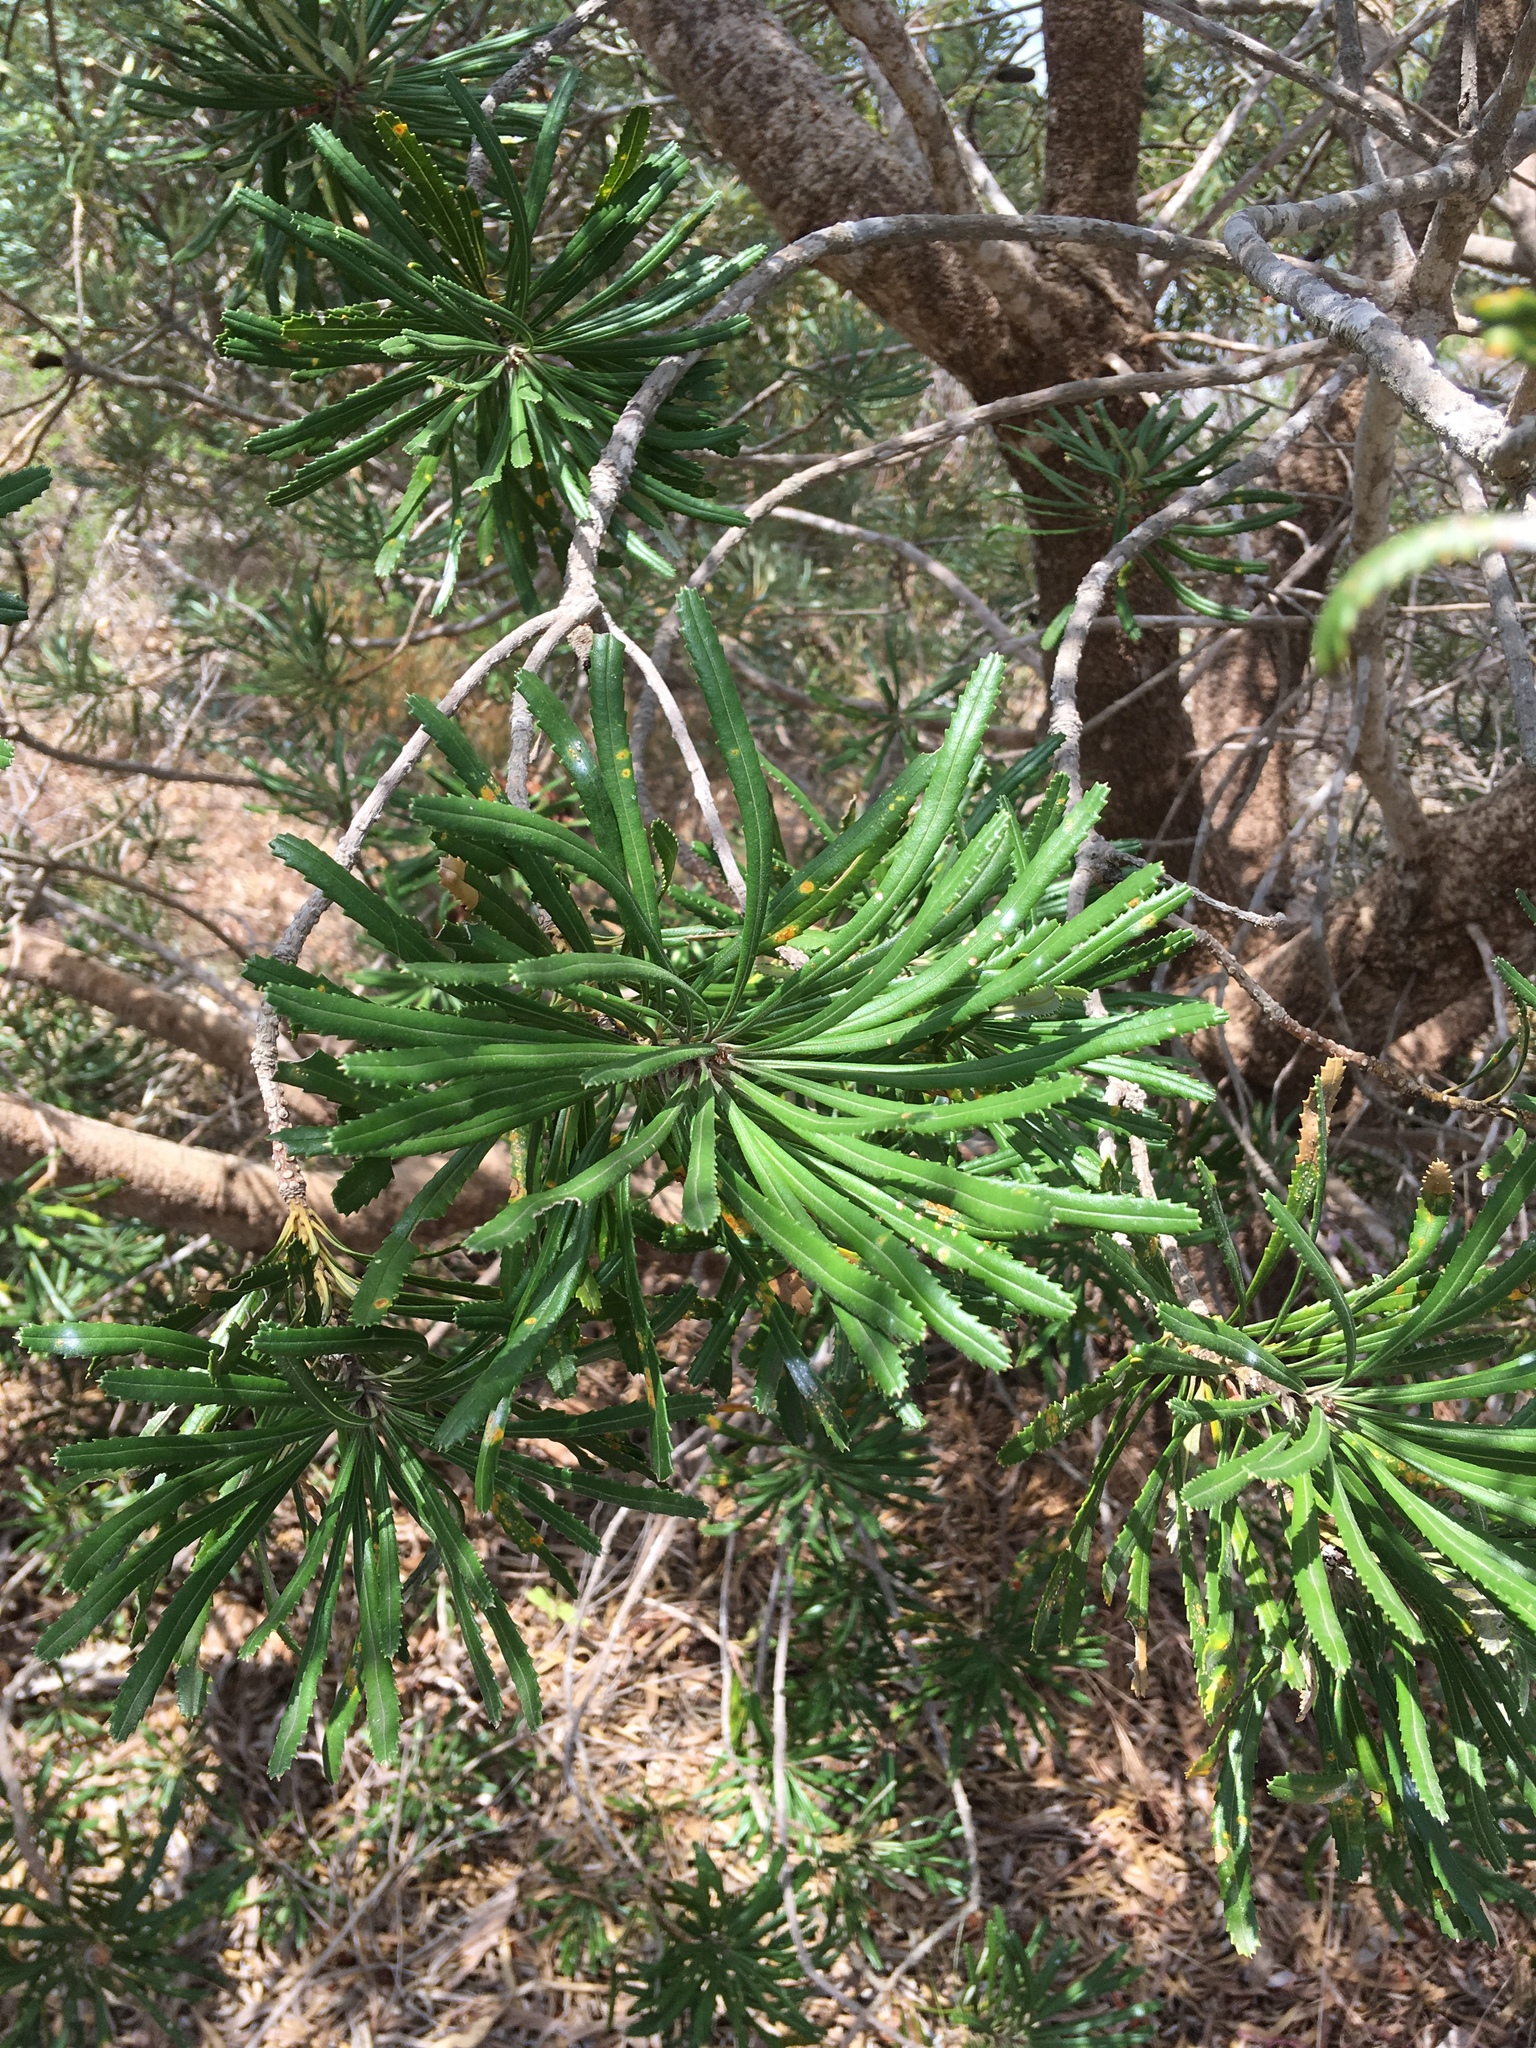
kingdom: Plantae
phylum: Tracheophyta
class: Magnoliopsida
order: Proteales
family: Proteaceae
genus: Banksia
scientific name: Banksia attenuata
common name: Coast banksia
